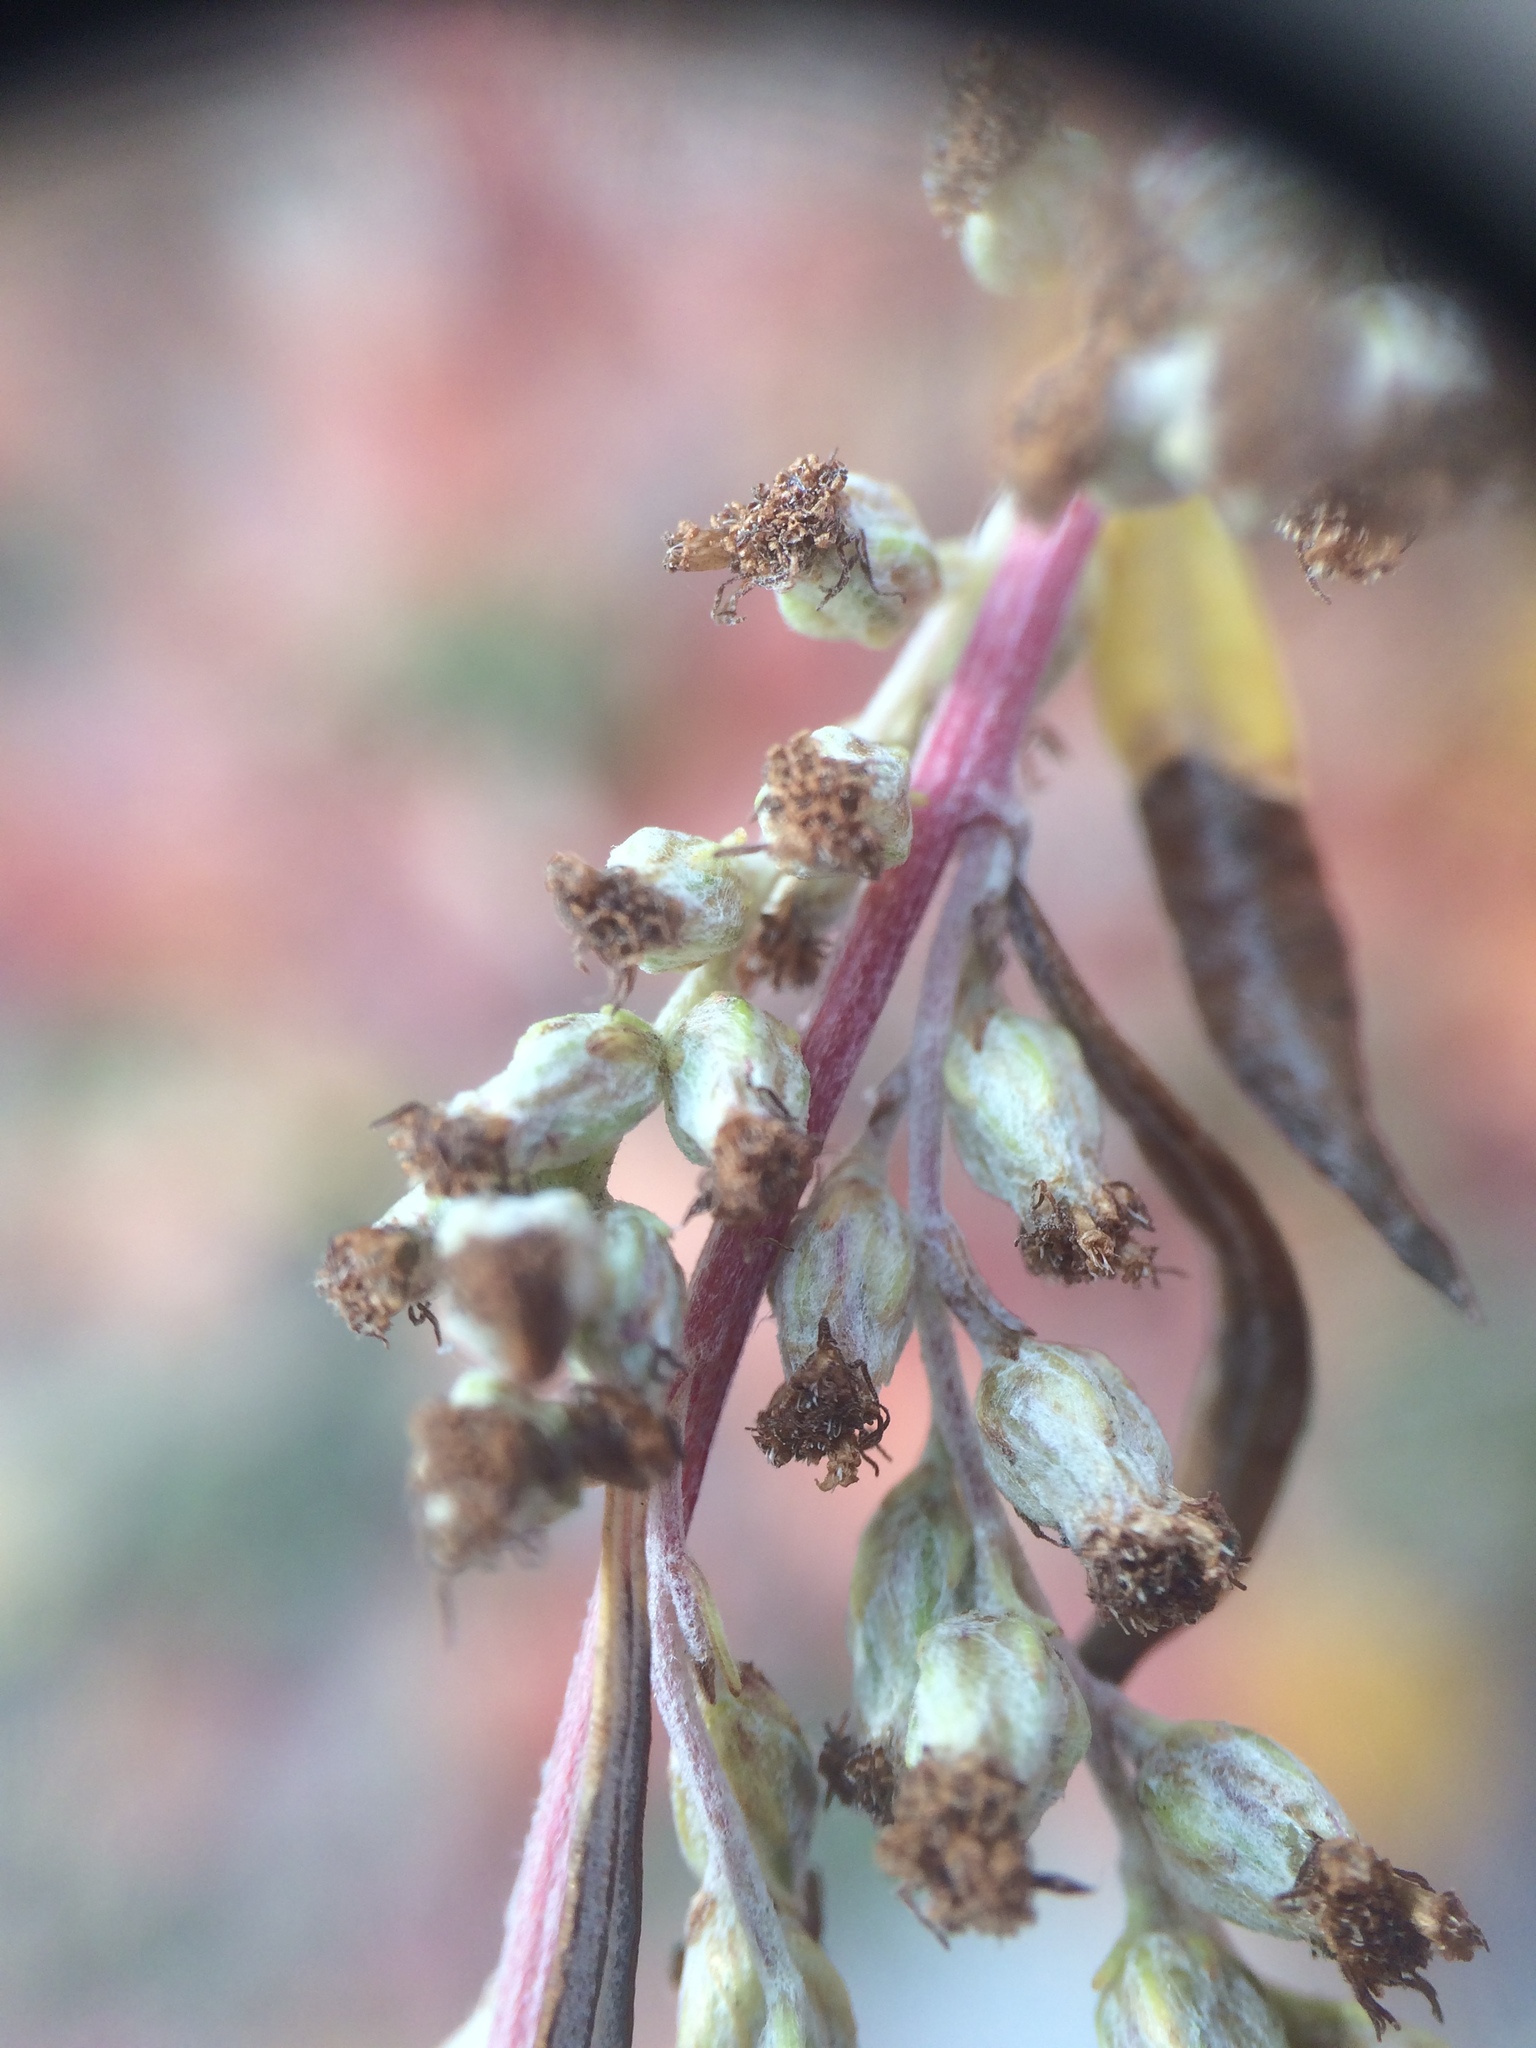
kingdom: Plantae
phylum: Tracheophyta
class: Magnoliopsida
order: Asterales
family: Asteraceae
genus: Artemisia
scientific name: Artemisia vulgaris
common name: Mugwort
